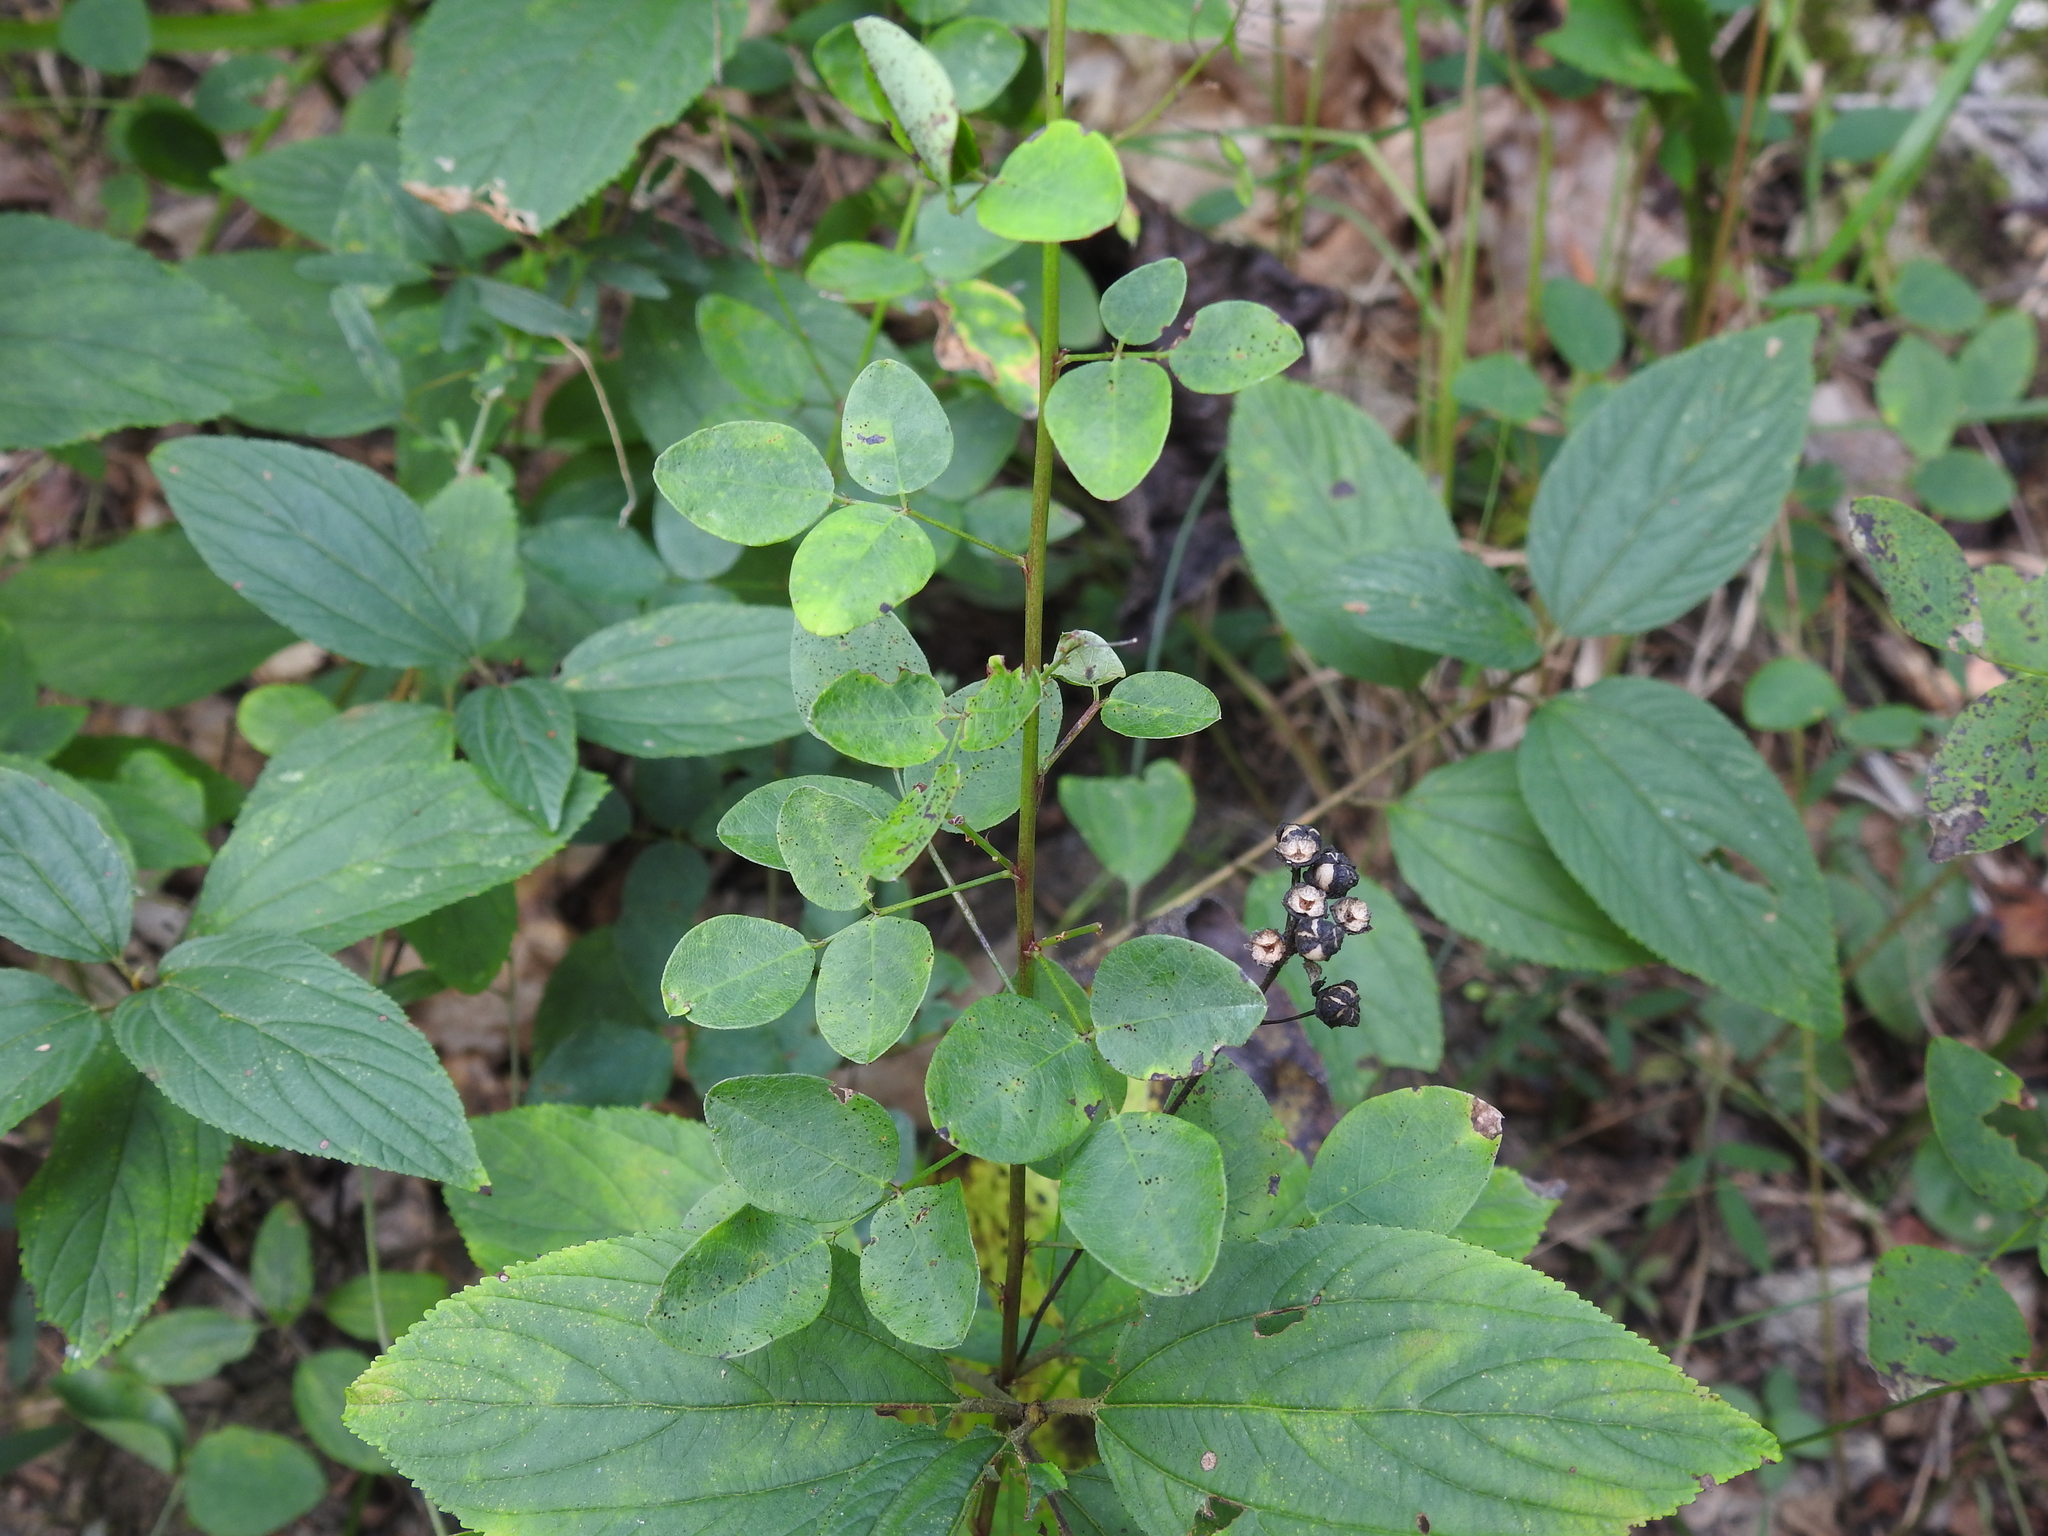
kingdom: Plantae
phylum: Tracheophyta
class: Magnoliopsida
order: Fabales
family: Fabaceae
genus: Desmodium
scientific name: Desmodium marilandicum
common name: Maryland tick-trefoil
